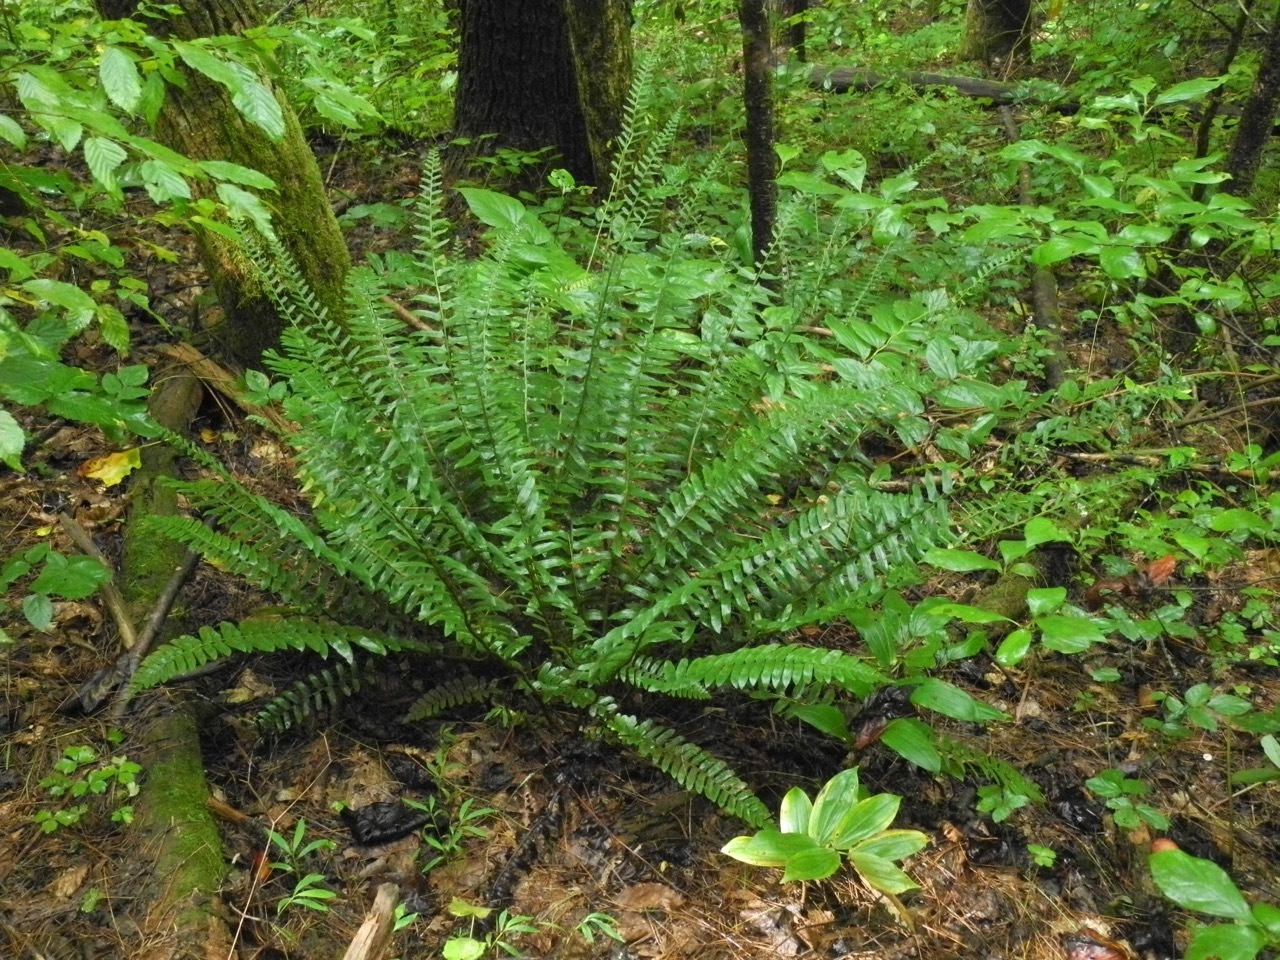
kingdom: Plantae
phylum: Tracheophyta
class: Polypodiopsida
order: Polypodiales
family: Dryopteridaceae
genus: Polystichum
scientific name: Polystichum acrostichoides
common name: Christmas fern
